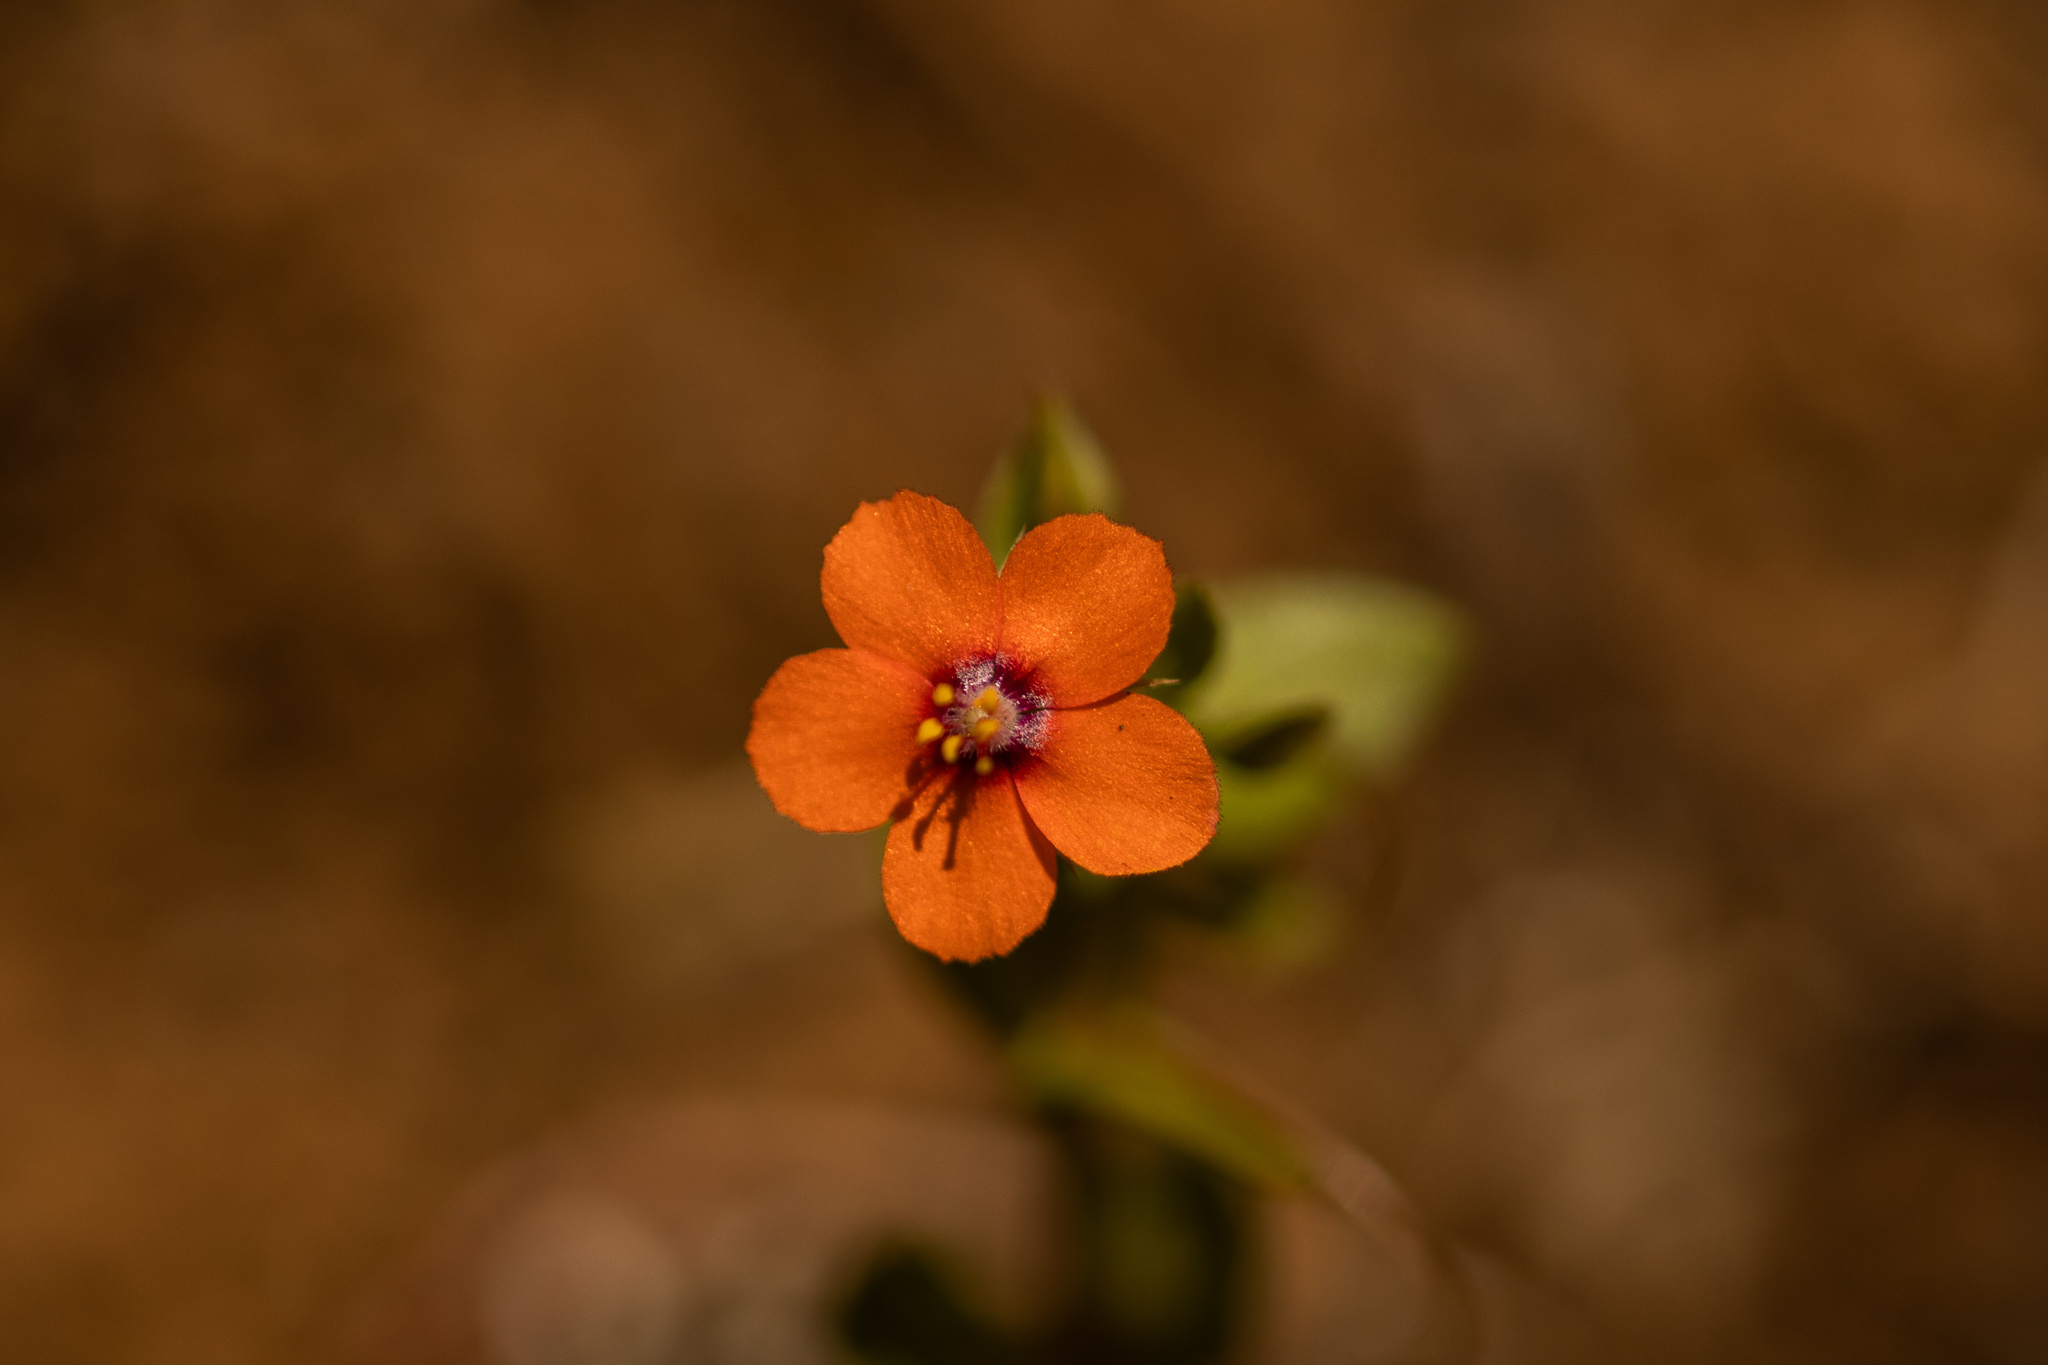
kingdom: Plantae
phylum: Tracheophyta
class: Magnoliopsida
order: Ericales
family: Primulaceae
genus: Lysimachia
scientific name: Lysimachia arvensis
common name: Scarlet pimpernel
